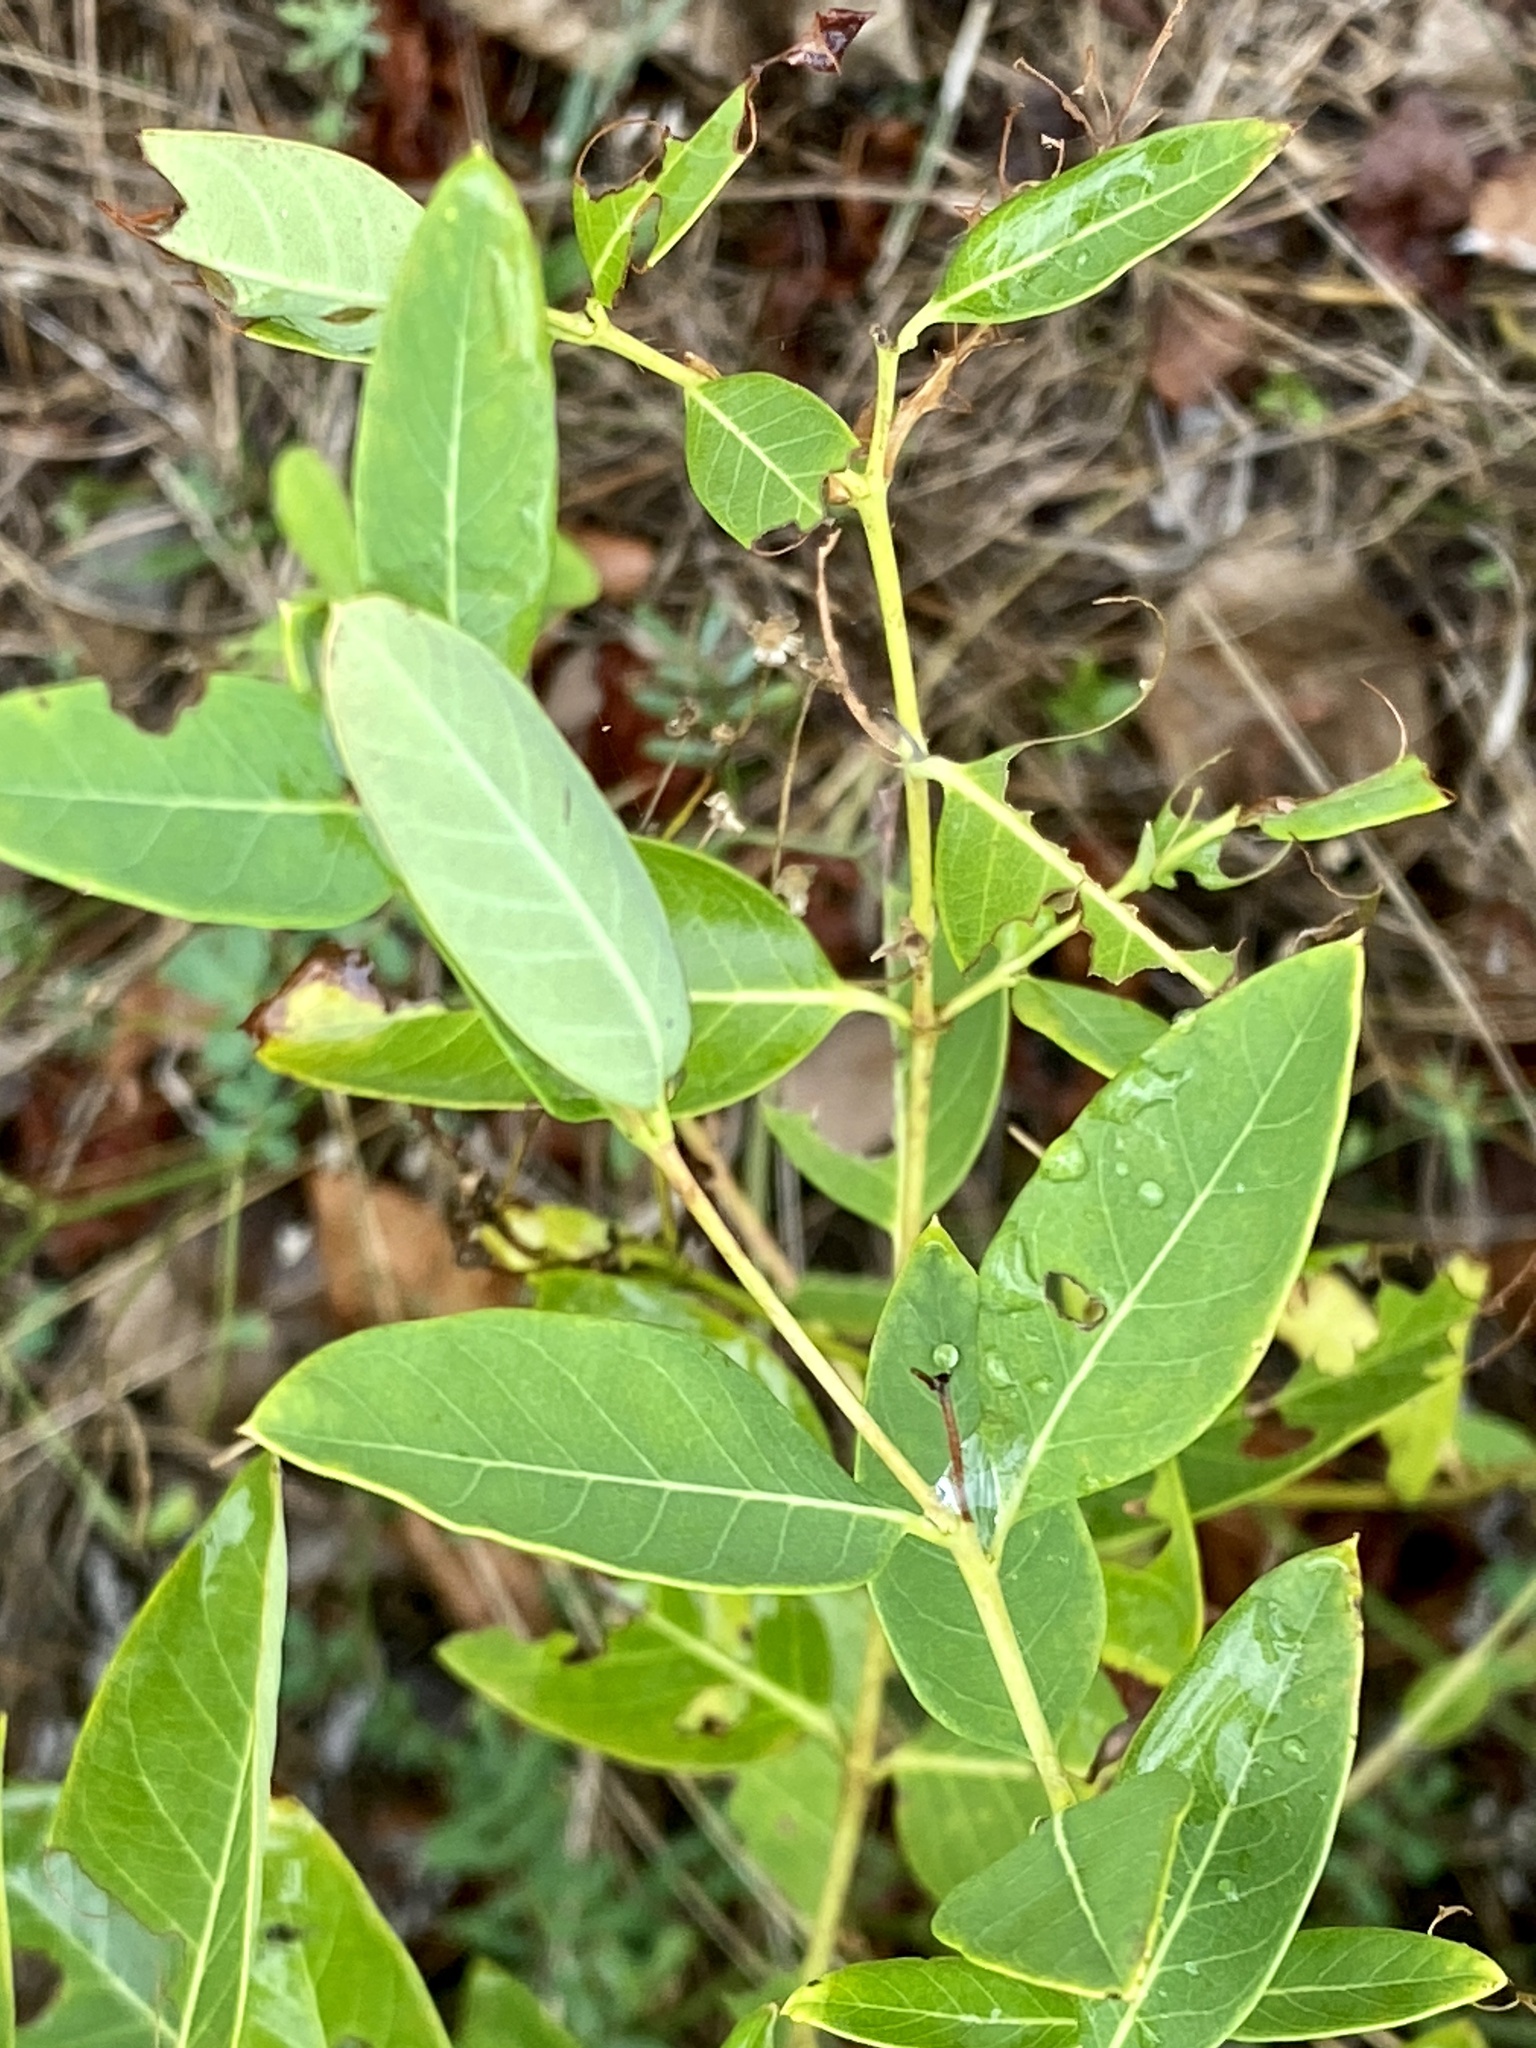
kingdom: Plantae
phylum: Tracheophyta
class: Magnoliopsida
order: Gentianales
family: Apocynaceae
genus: Apocynum
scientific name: Apocynum cannabinum
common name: Hemp dogbane
